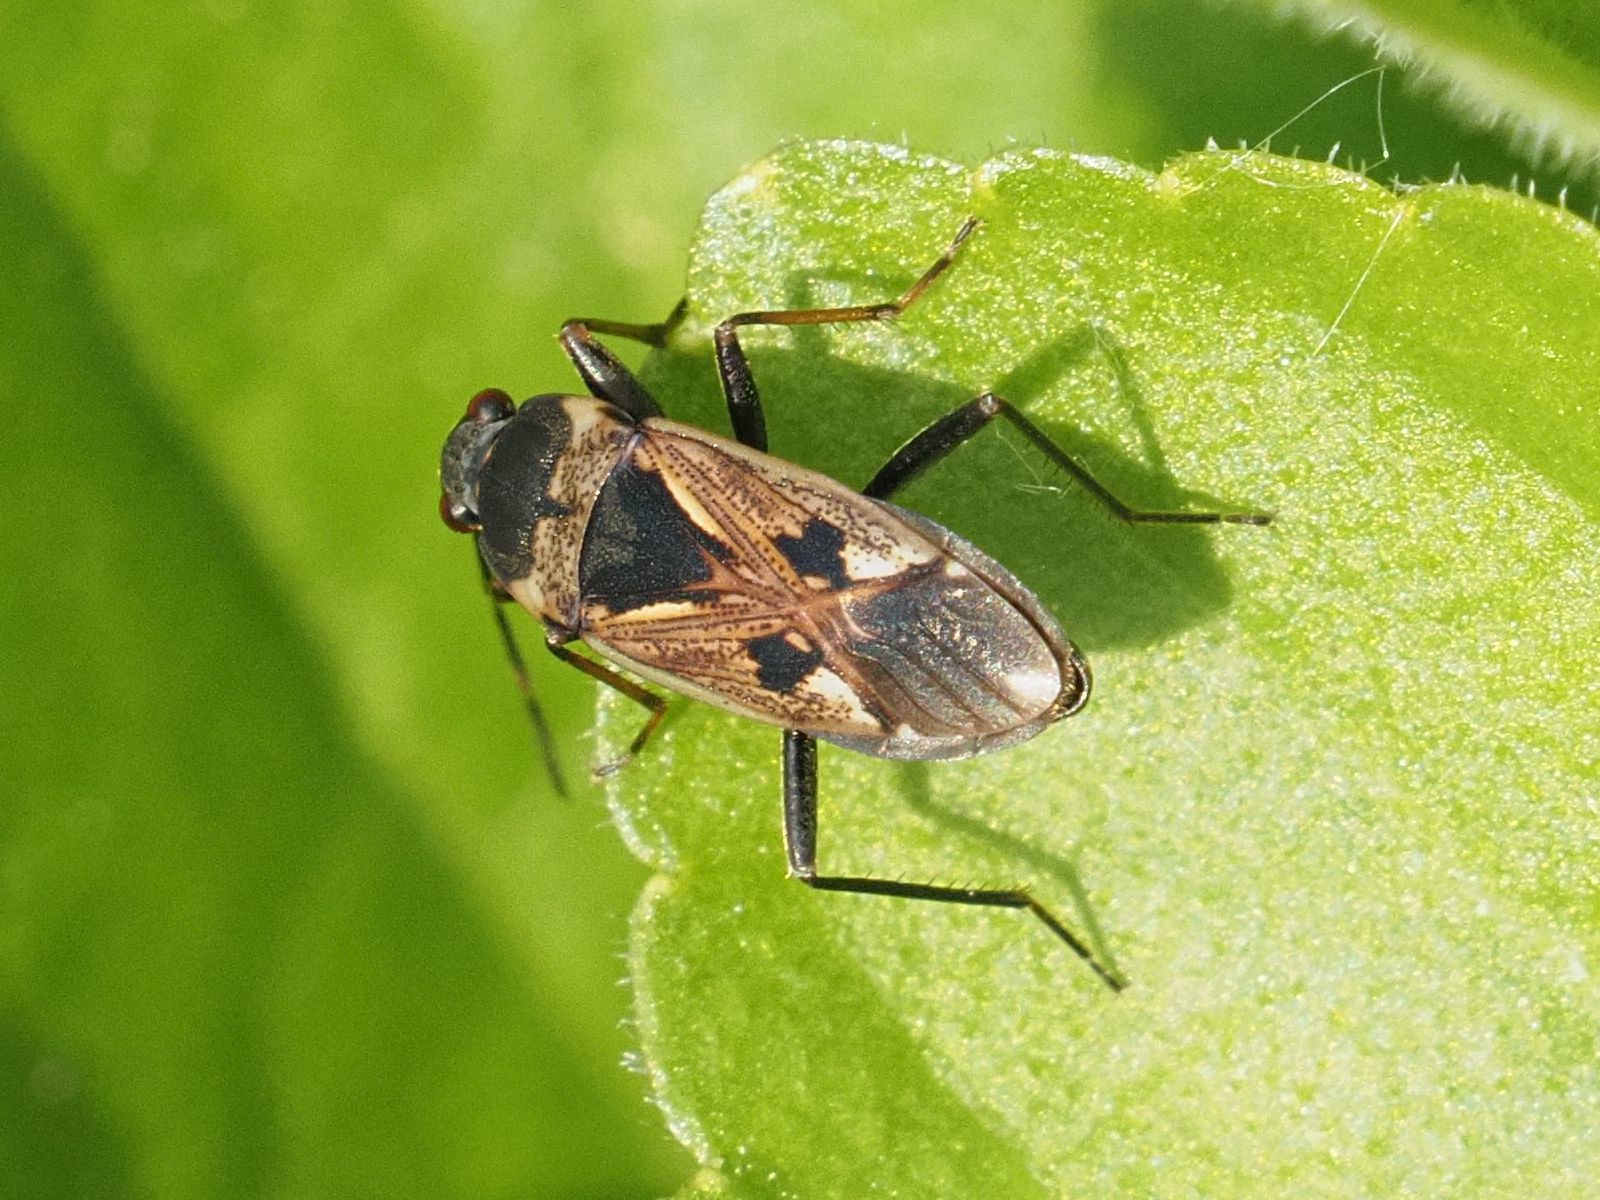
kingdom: Animalia
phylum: Arthropoda
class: Insecta
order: Hemiptera
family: Rhyparochromidae
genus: Rhyparochromus
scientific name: Rhyparochromus vulgaris
